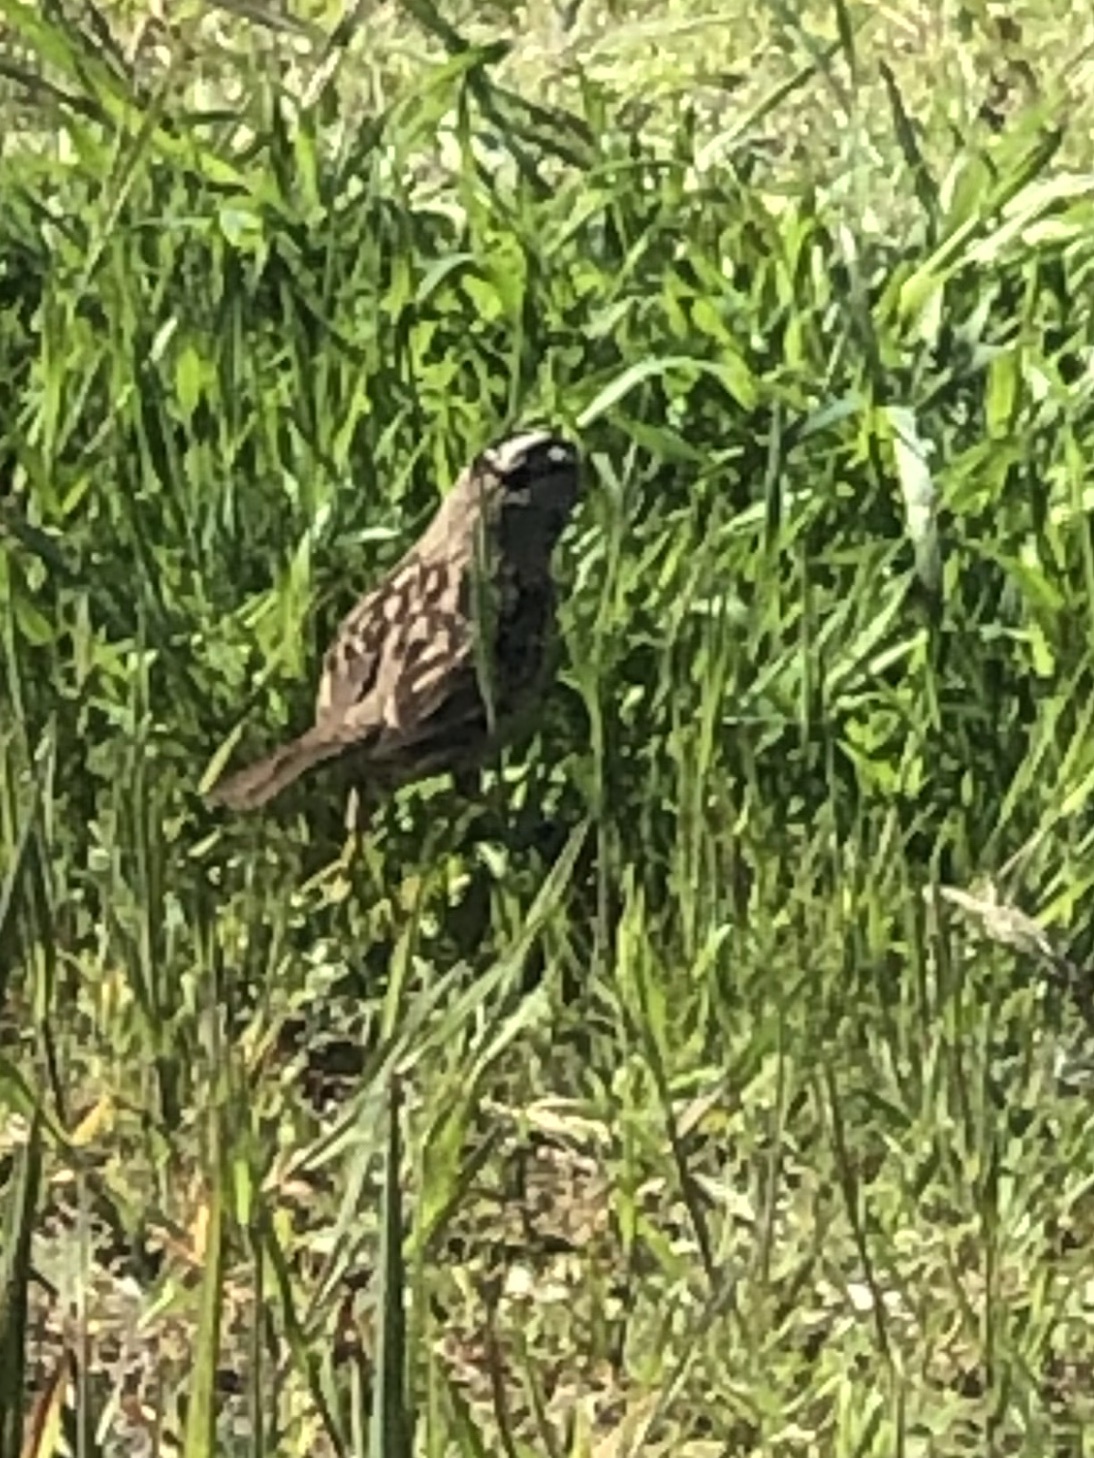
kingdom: Animalia
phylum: Chordata
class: Aves
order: Passeriformes
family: Passerellidae
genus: Zonotrichia
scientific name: Zonotrichia leucophrys
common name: White-crowned sparrow
